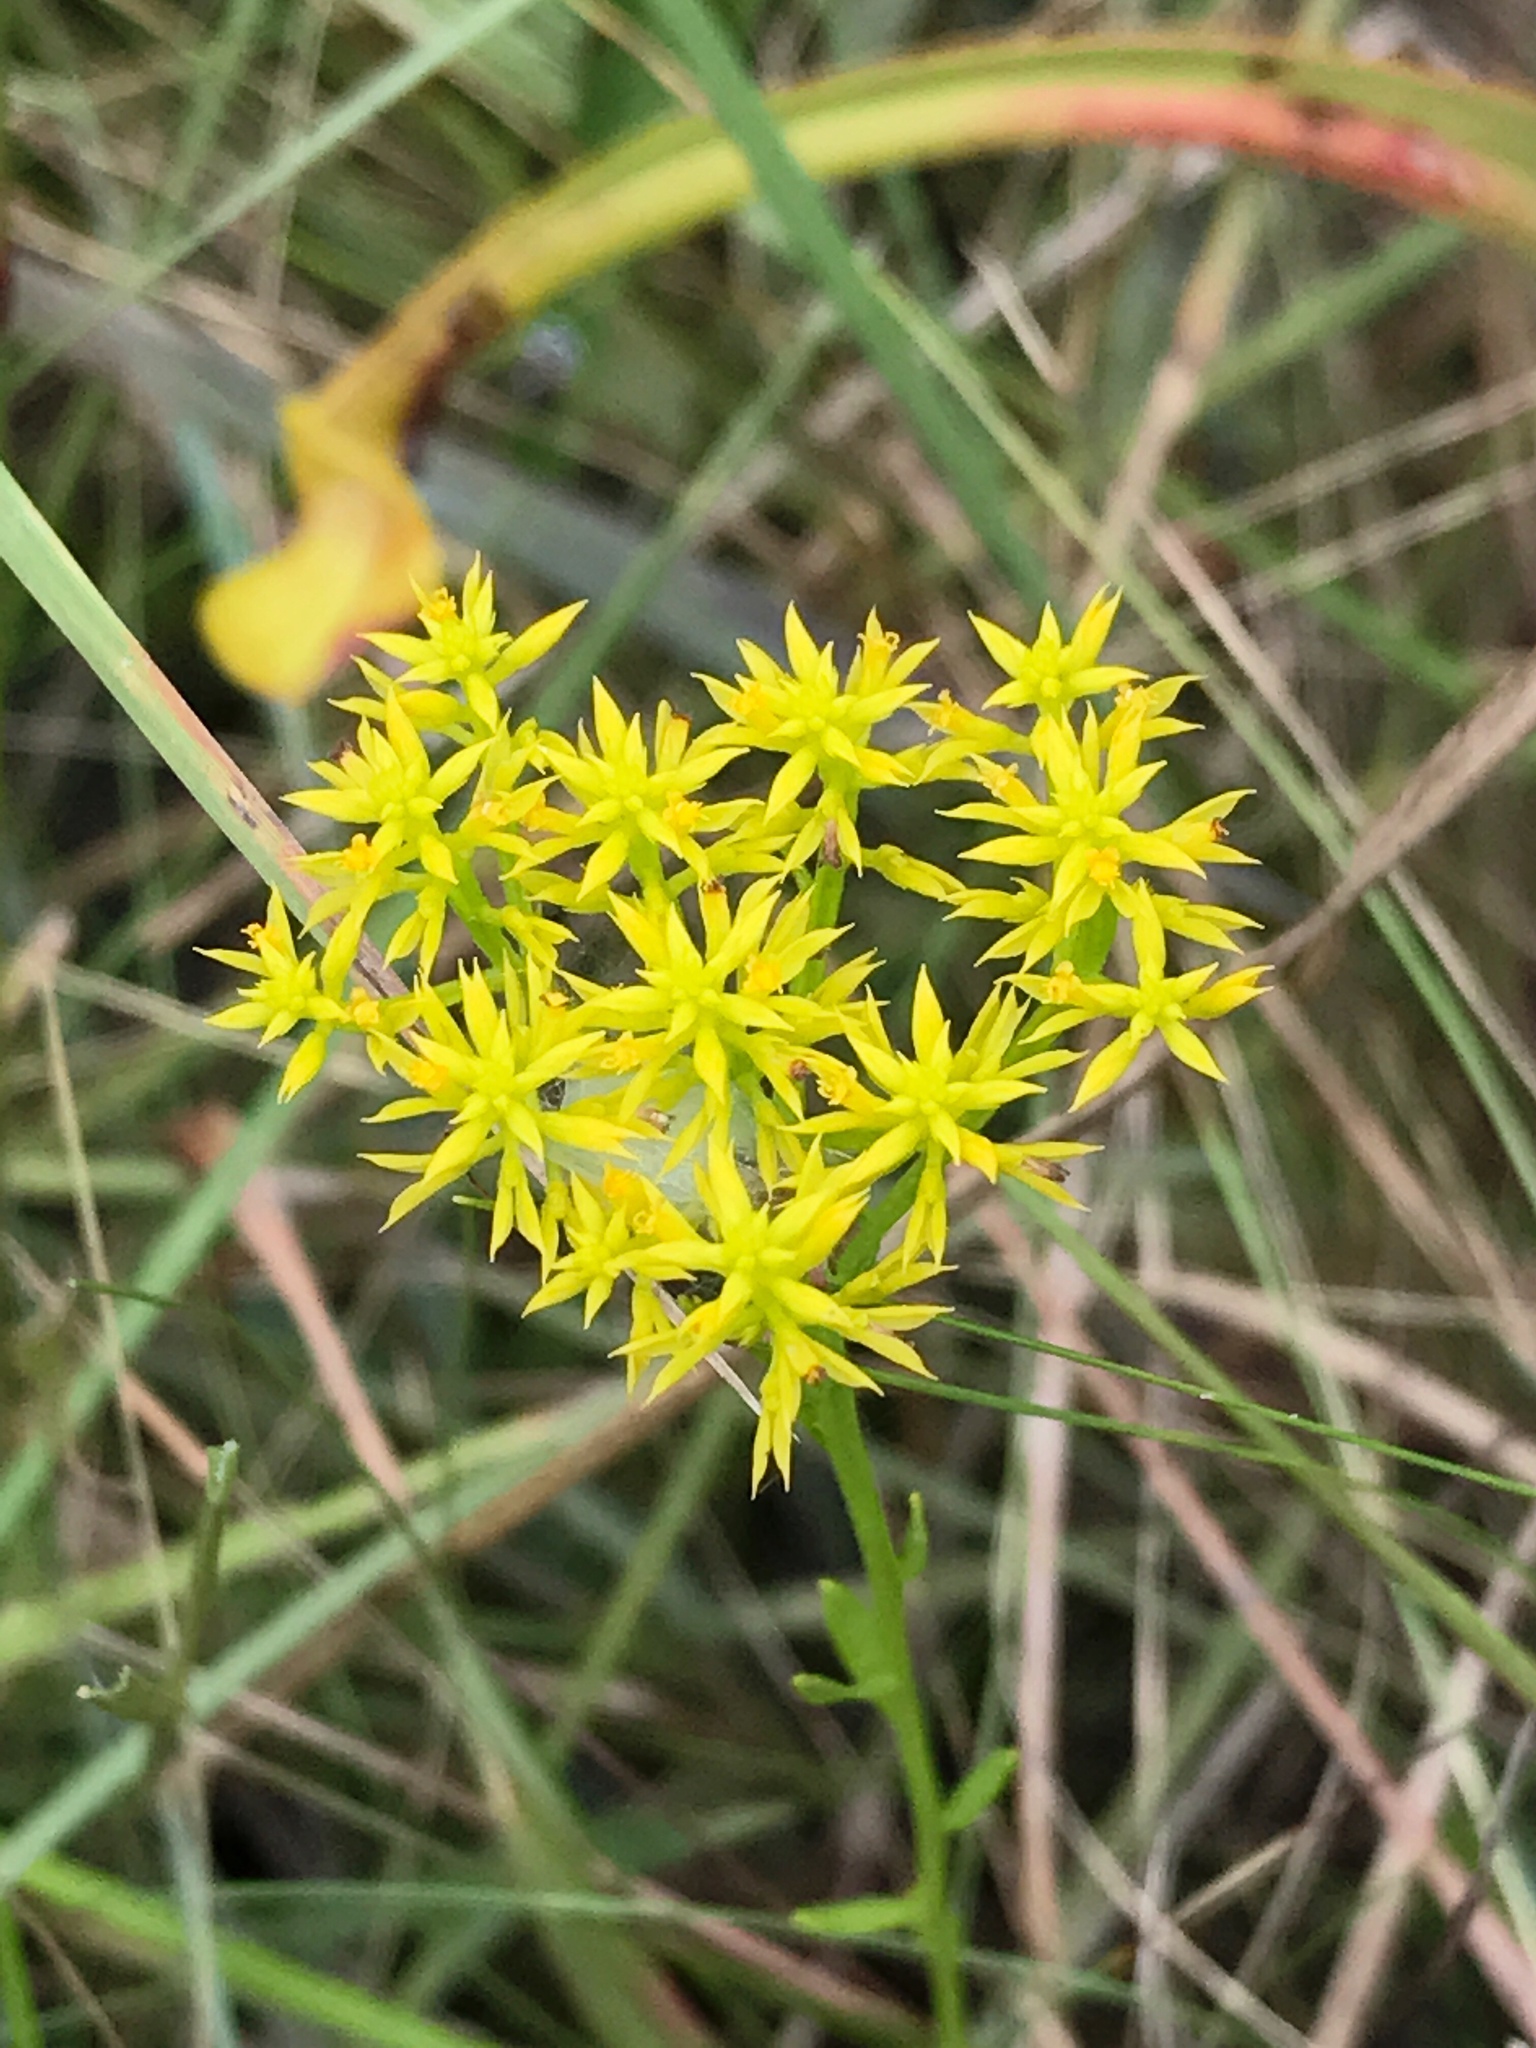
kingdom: Plantae
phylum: Tracheophyta
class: Magnoliopsida
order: Fabales
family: Polygalaceae
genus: Polygala
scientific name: Polygala ramosa
